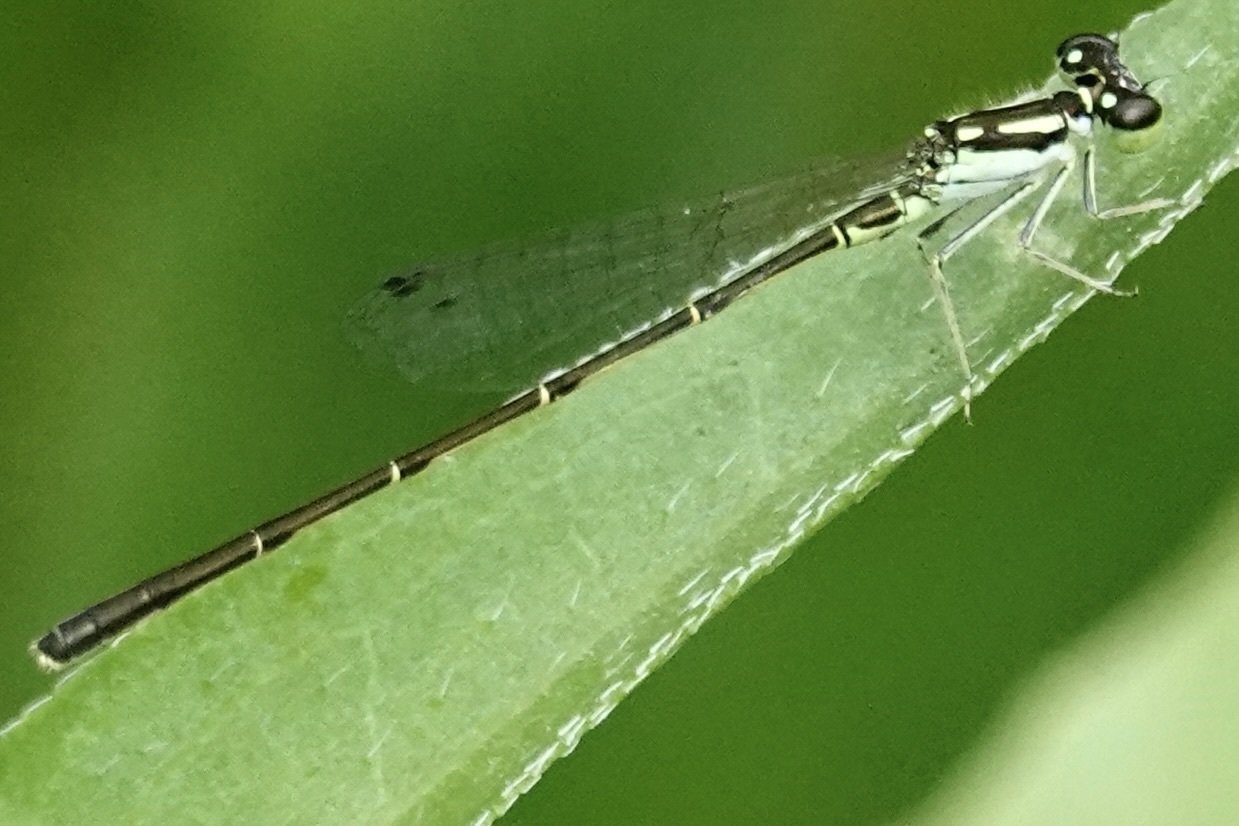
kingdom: Animalia
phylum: Arthropoda
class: Insecta
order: Odonata
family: Coenagrionidae
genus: Ischnura
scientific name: Ischnura posita
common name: Fragile forktail
